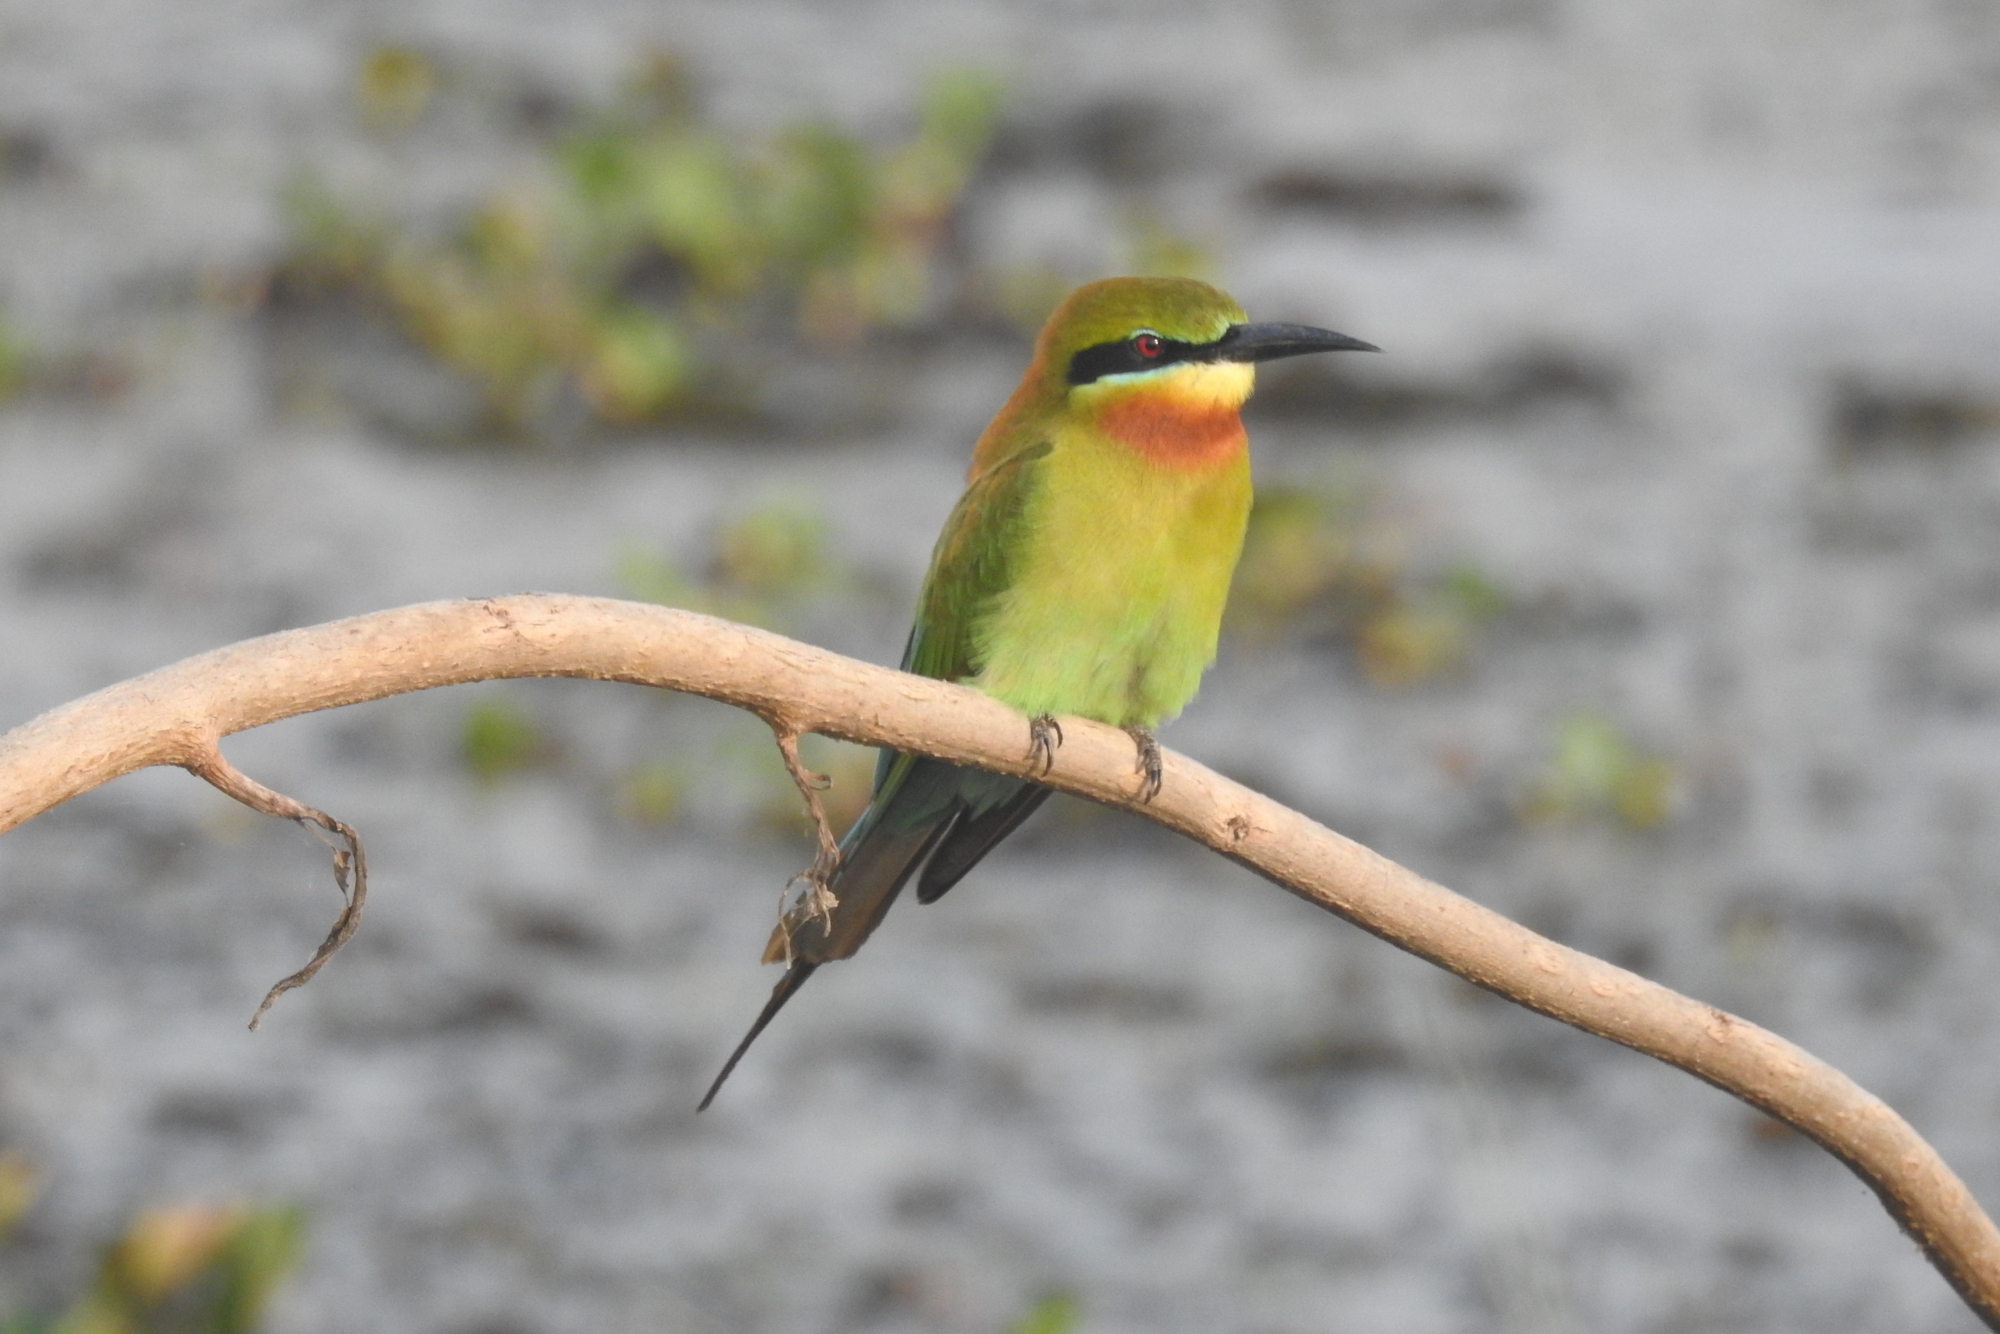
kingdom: Animalia
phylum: Chordata
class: Aves
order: Coraciiformes
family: Meropidae
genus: Merops
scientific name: Merops philippinus
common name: Blue-tailed bee-eater
